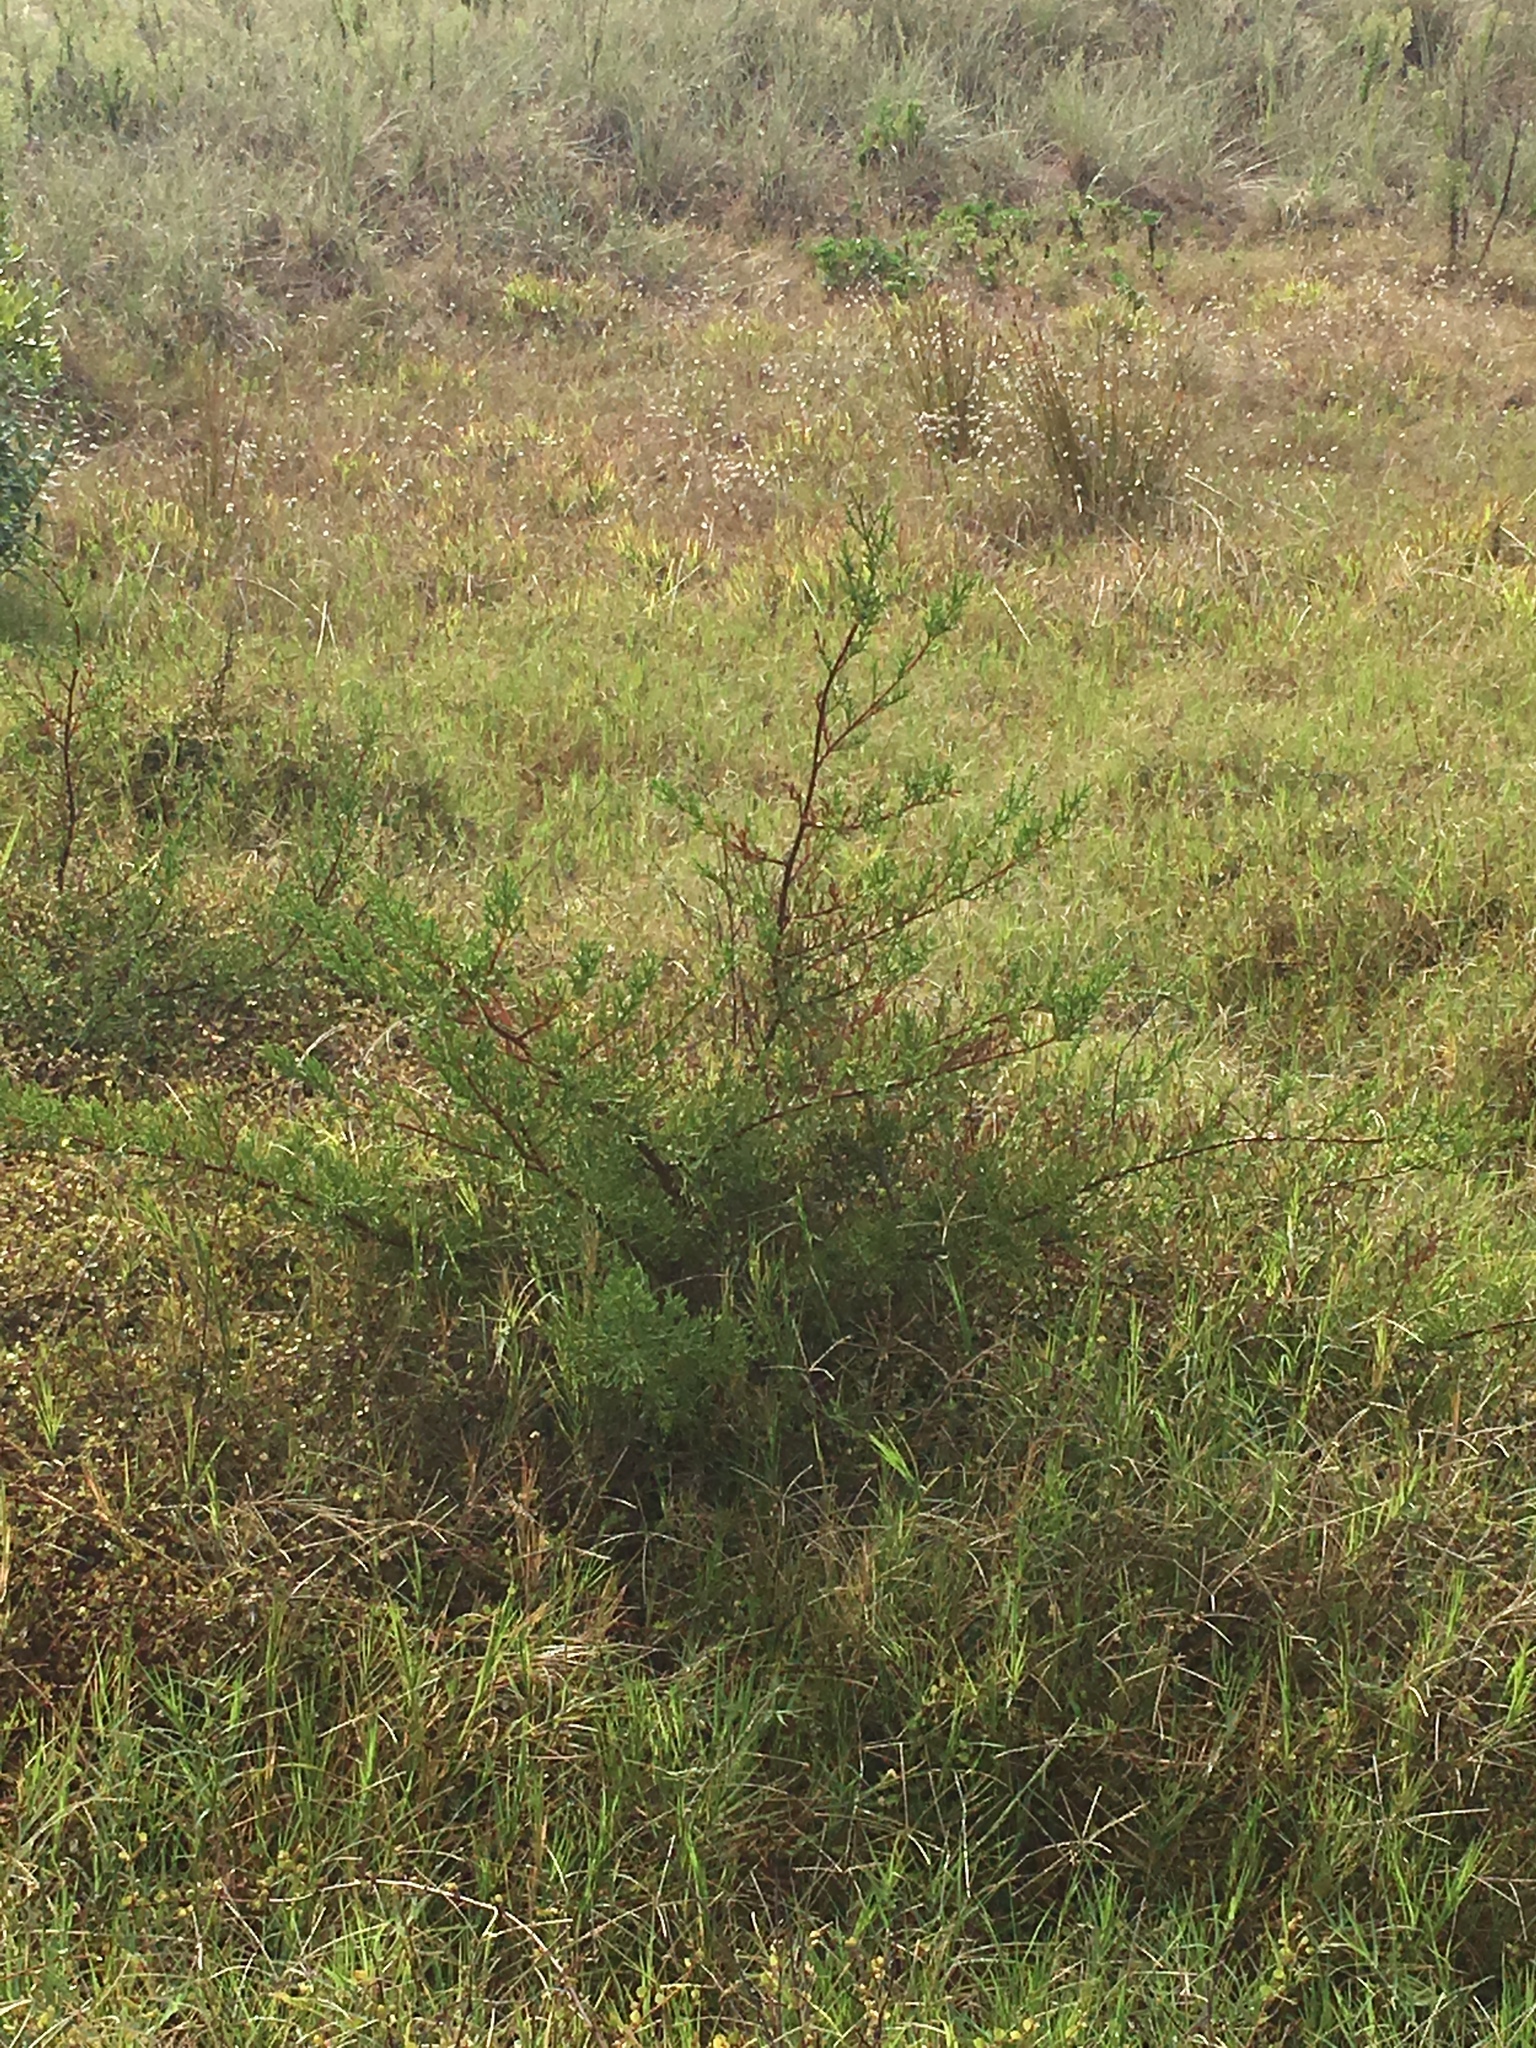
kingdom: Plantae
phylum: Tracheophyta
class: Pinopsida
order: Pinales
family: Cupressaceae
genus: Cupressus
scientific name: Cupressus macrocarpa
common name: Monterey cypress
